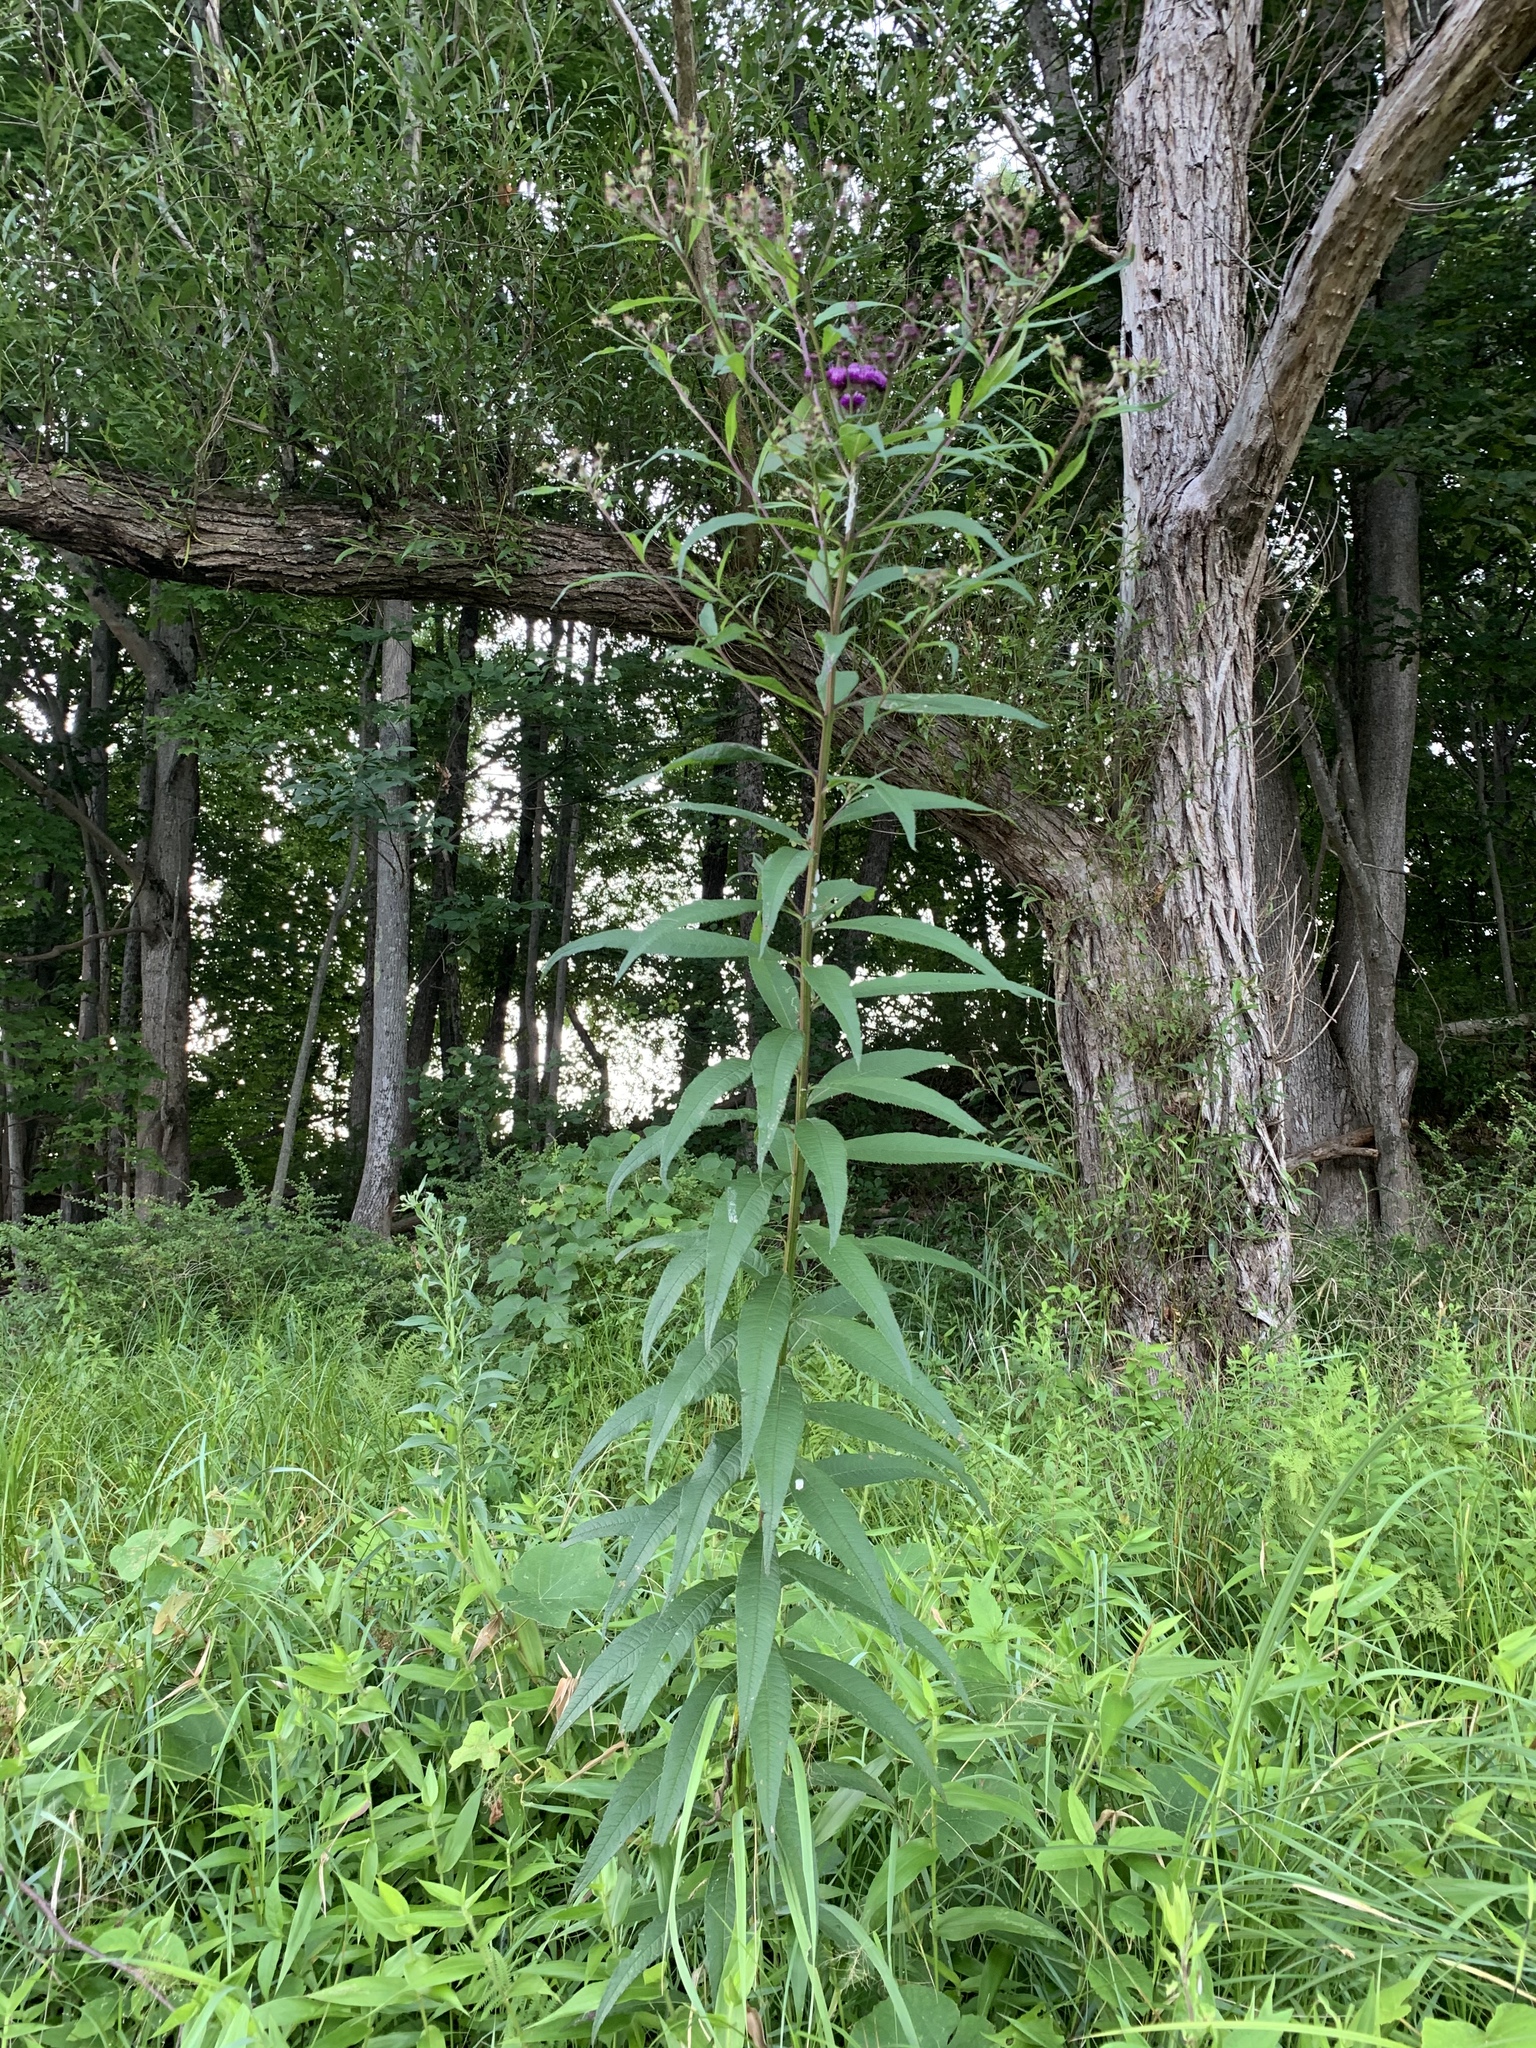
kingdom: Plantae
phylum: Tracheophyta
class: Magnoliopsida
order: Asterales
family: Asteraceae
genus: Vernonia
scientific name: Vernonia noveboracensis
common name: New york ironweed
